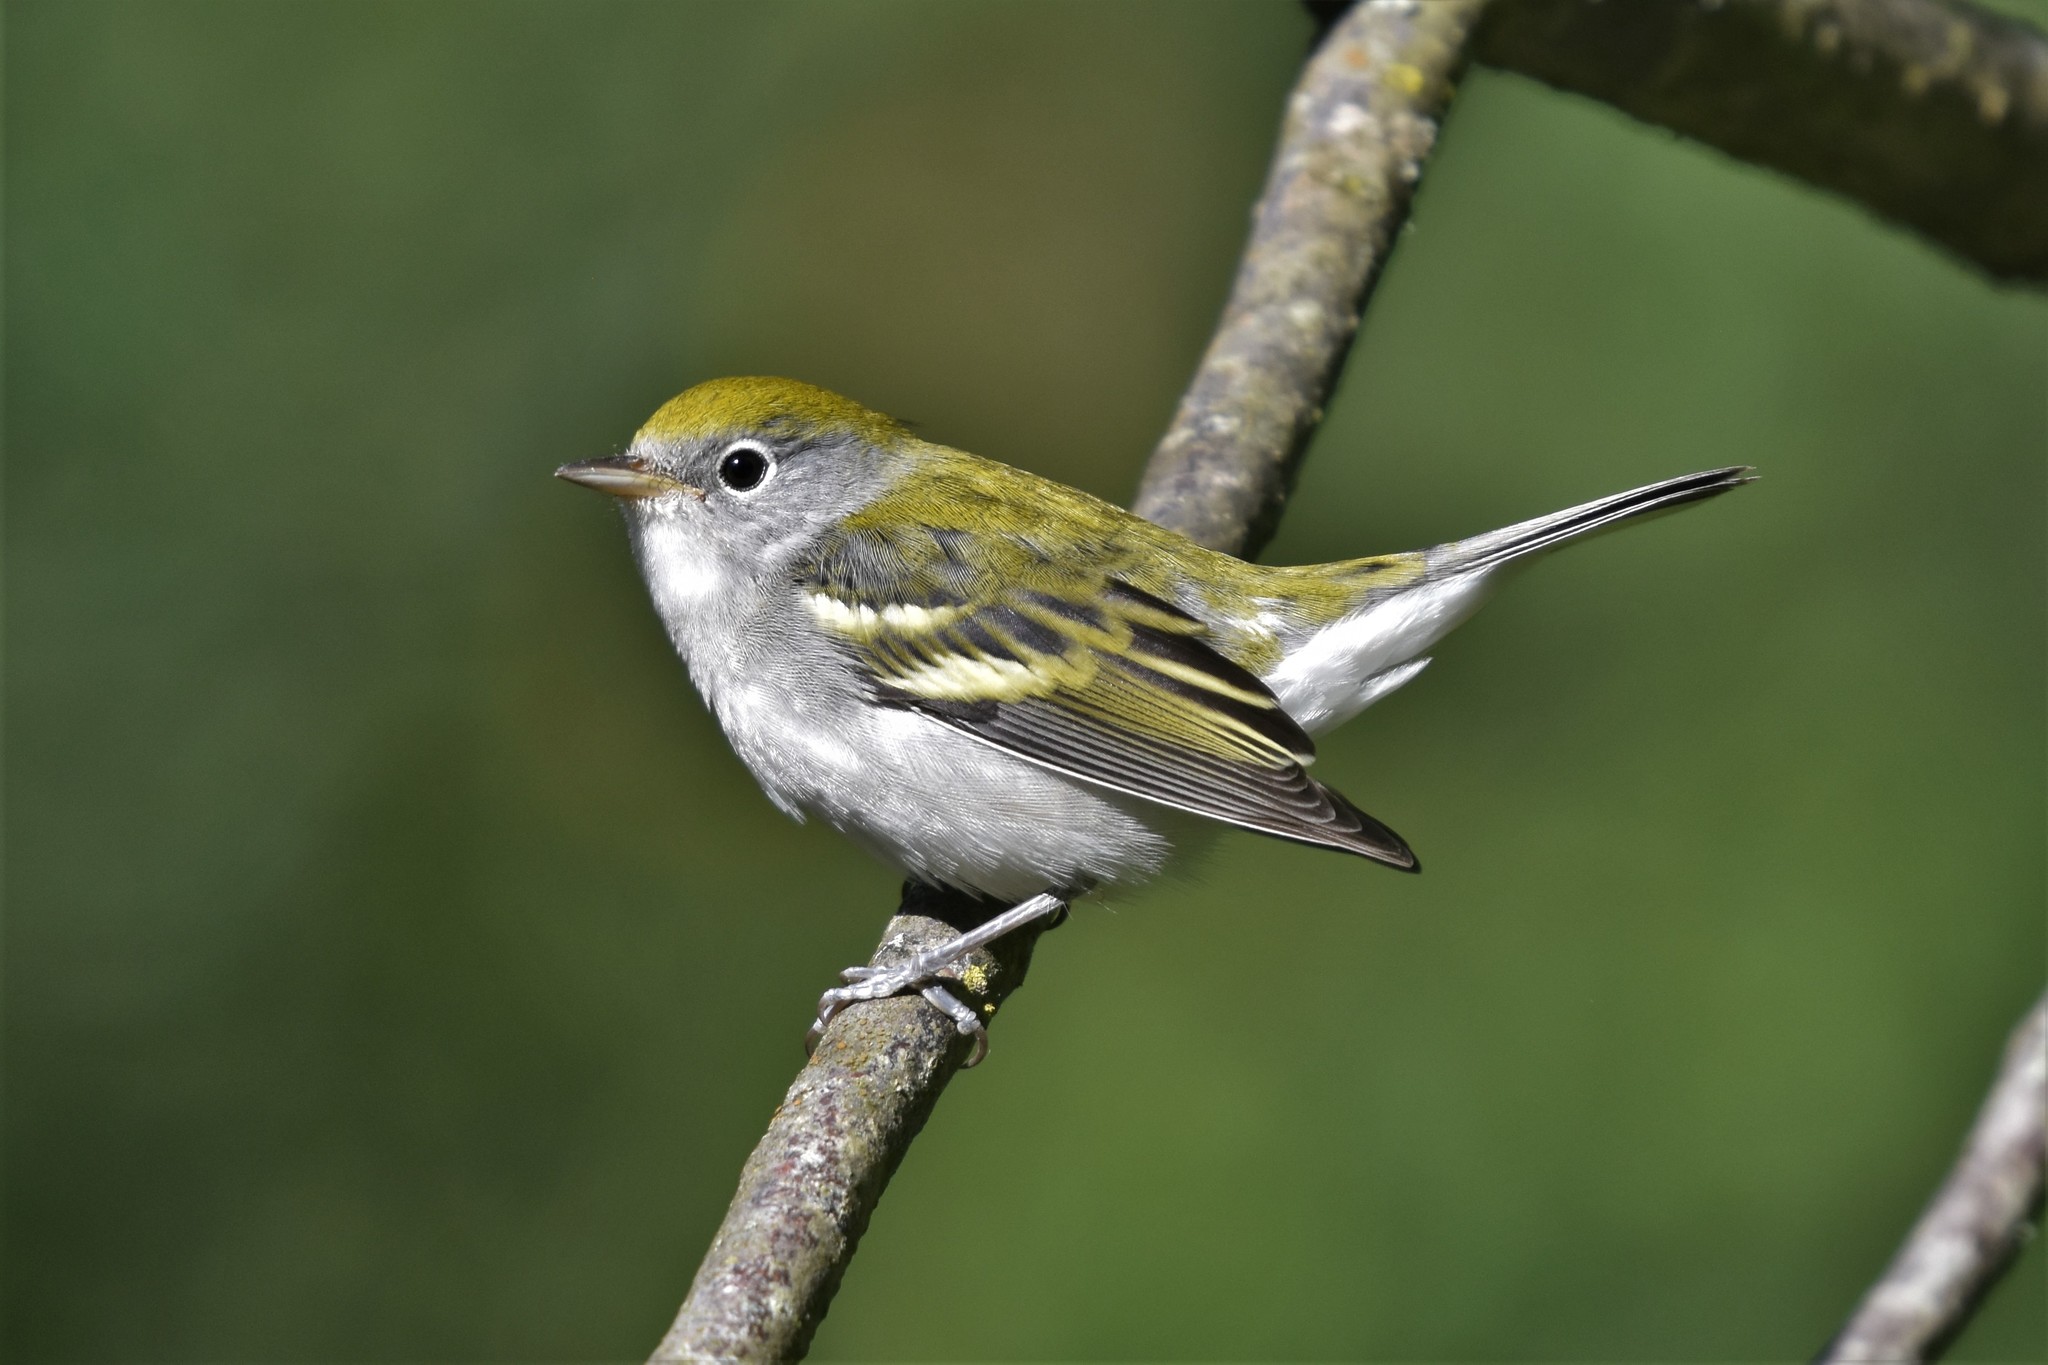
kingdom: Animalia
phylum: Chordata
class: Aves
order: Passeriformes
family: Parulidae
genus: Setophaga
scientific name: Setophaga pensylvanica
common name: Chestnut-sided warbler
